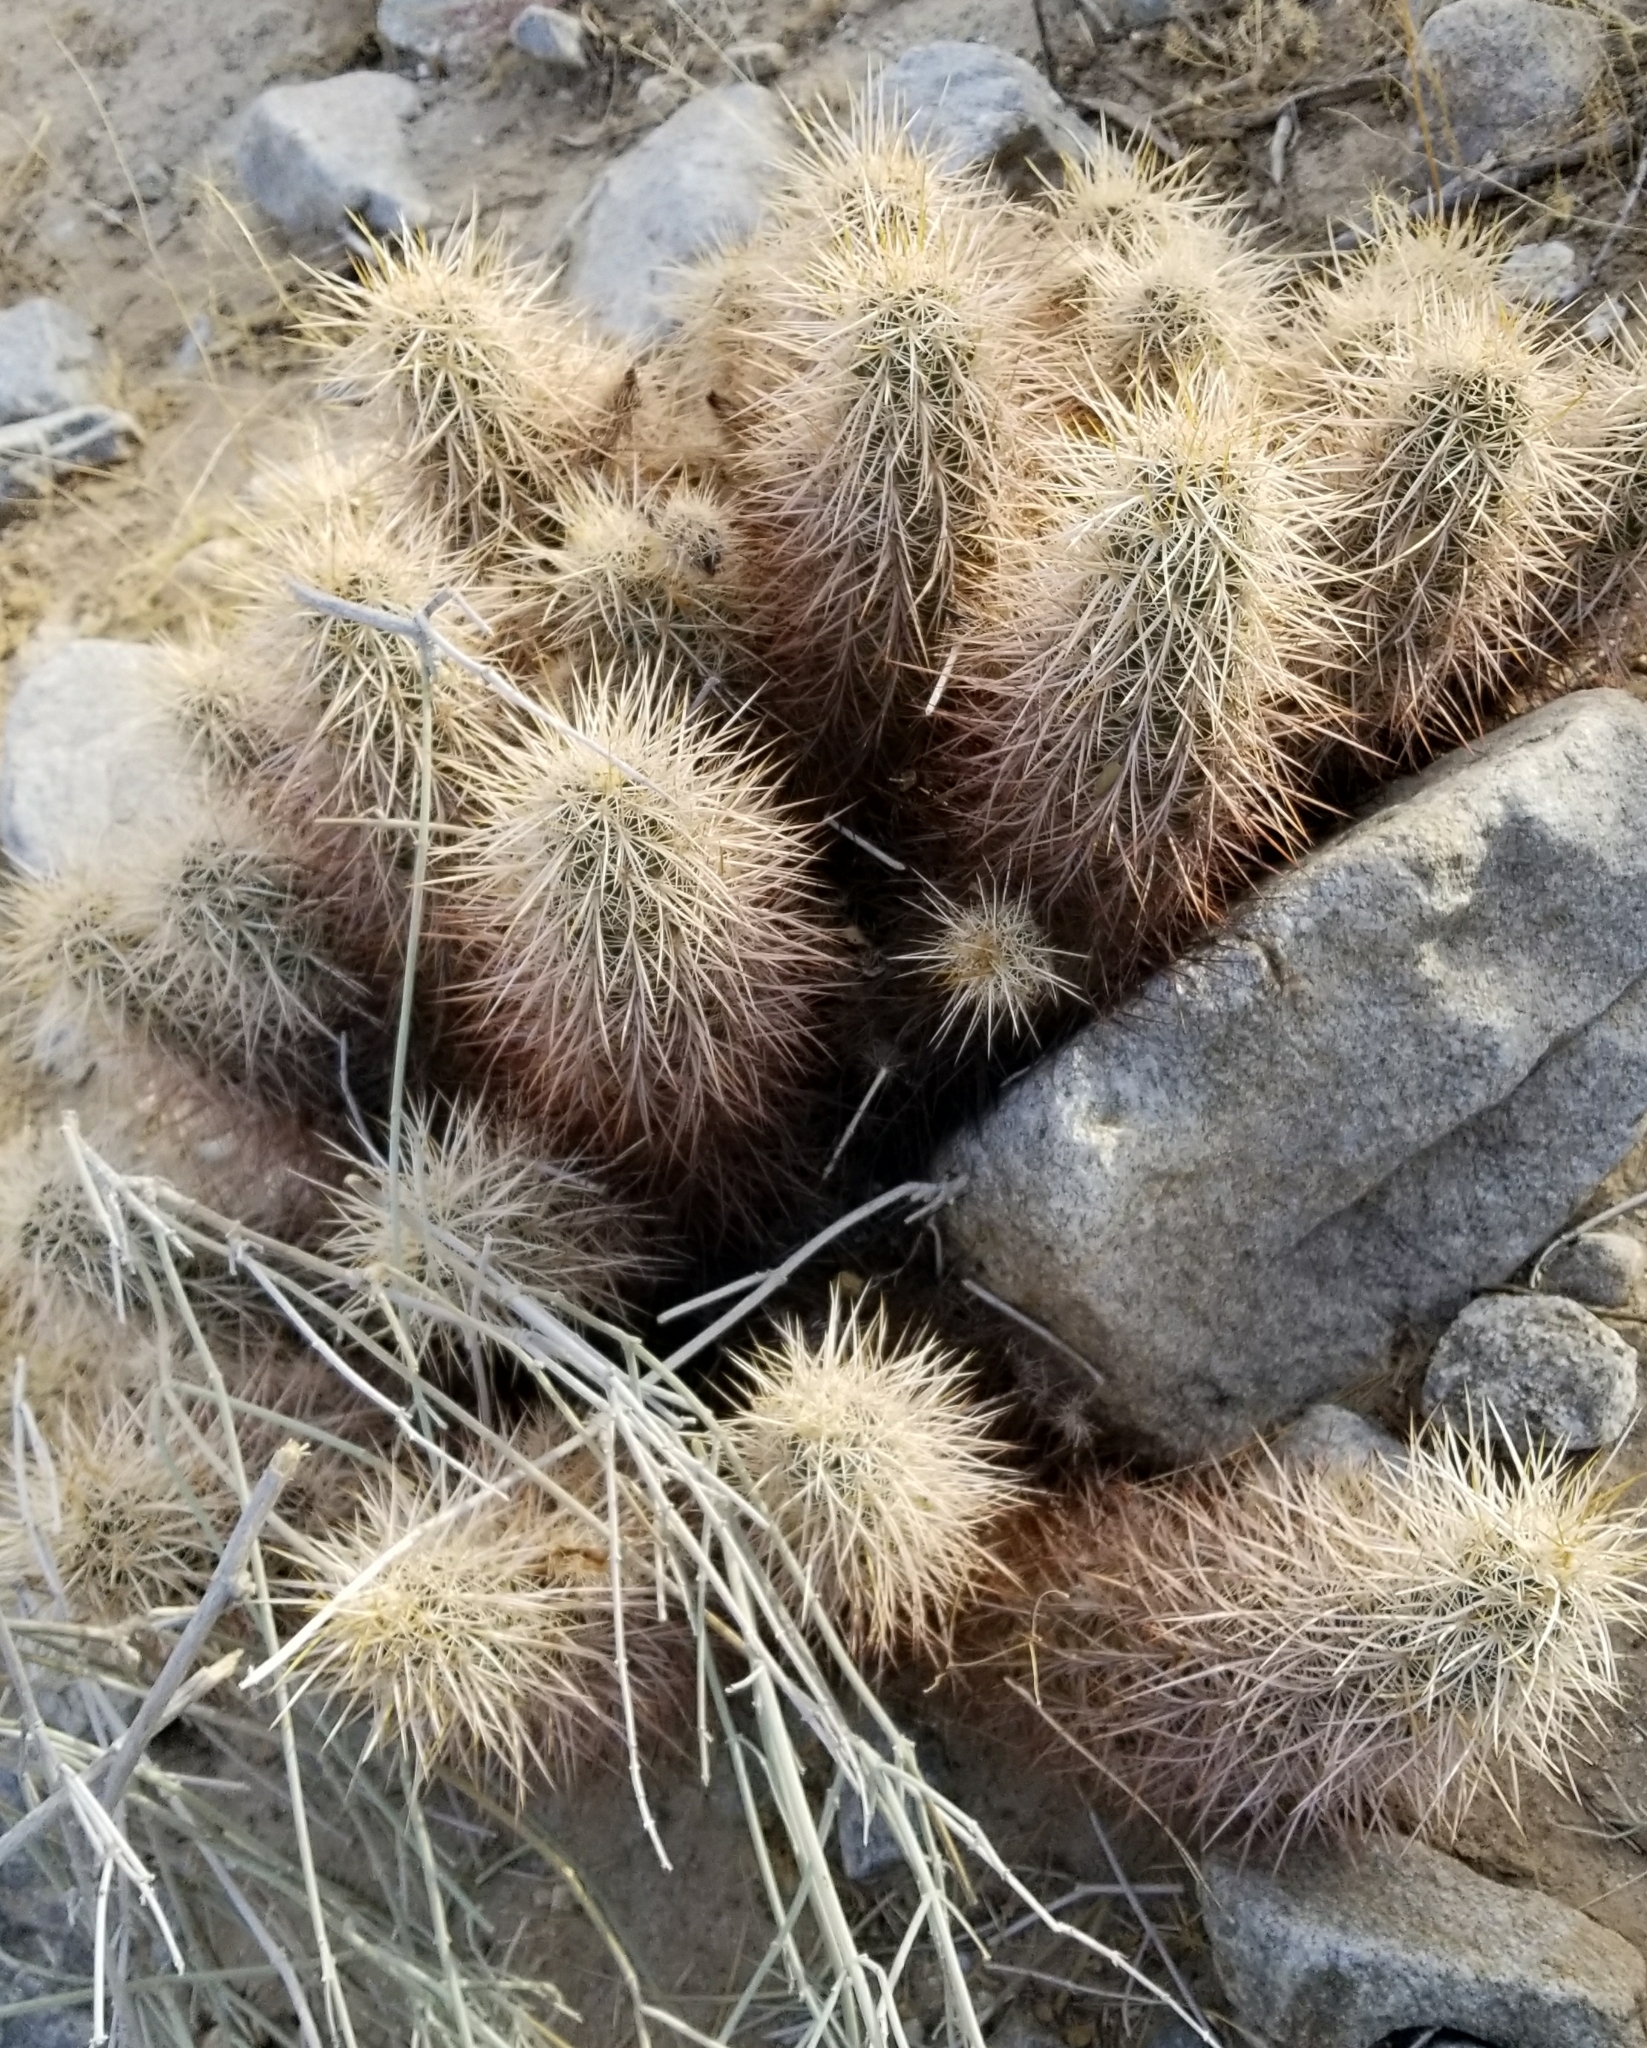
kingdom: Plantae
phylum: Tracheophyta
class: Magnoliopsida
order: Caryophyllales
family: Cactaceae
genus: Echinocereus
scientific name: Echinocereus engelmannii
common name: Engelmann's hedgehog cactus
